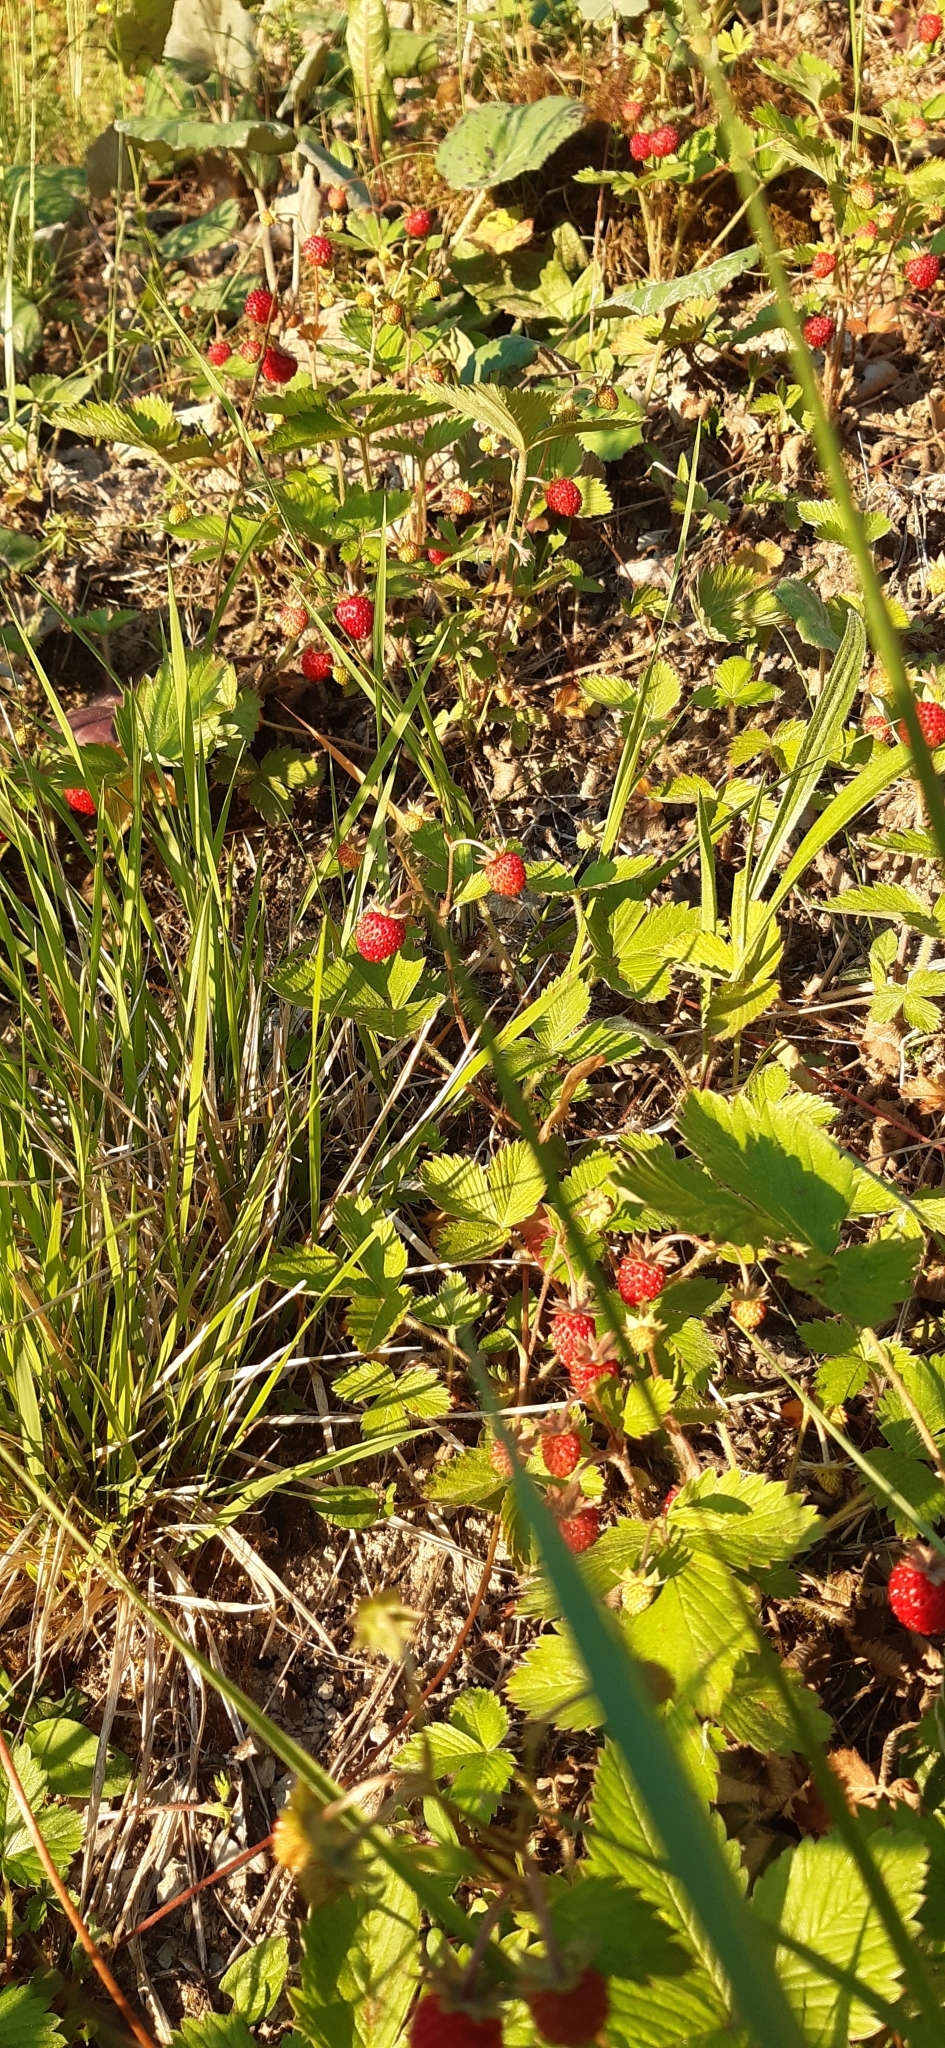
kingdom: Plantae
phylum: Tracheophyta
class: Magnoliopsida
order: Rosales
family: Rosaceae
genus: Fragaria
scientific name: Fragaria vesca
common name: Wild strawberry
